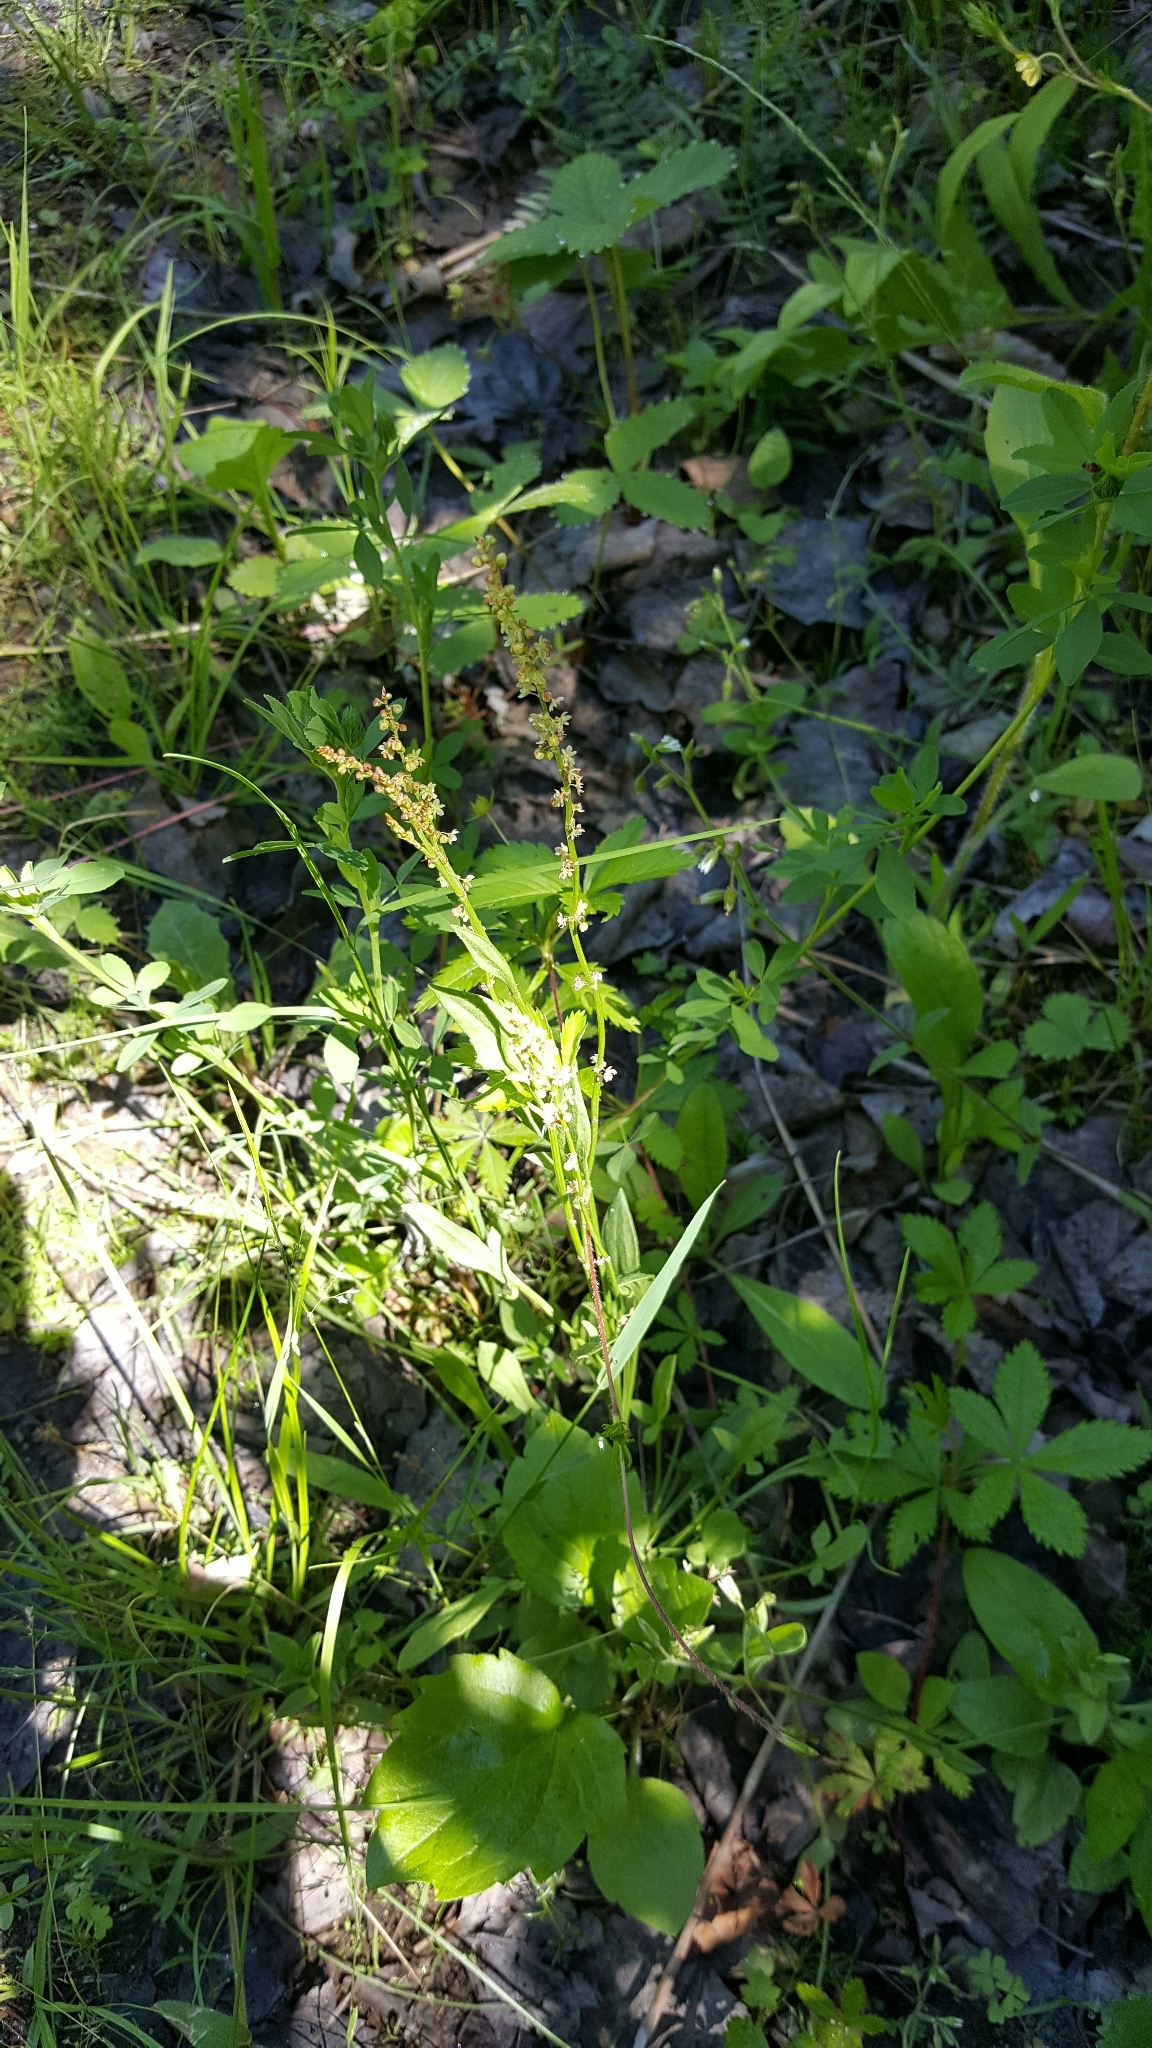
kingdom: Plantae
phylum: Tracheophyta
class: Magnoliopsida
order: Caryophyllales
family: Polygonaceae
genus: Rumex
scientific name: Rumex acetosella
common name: Common sheep sorrel
